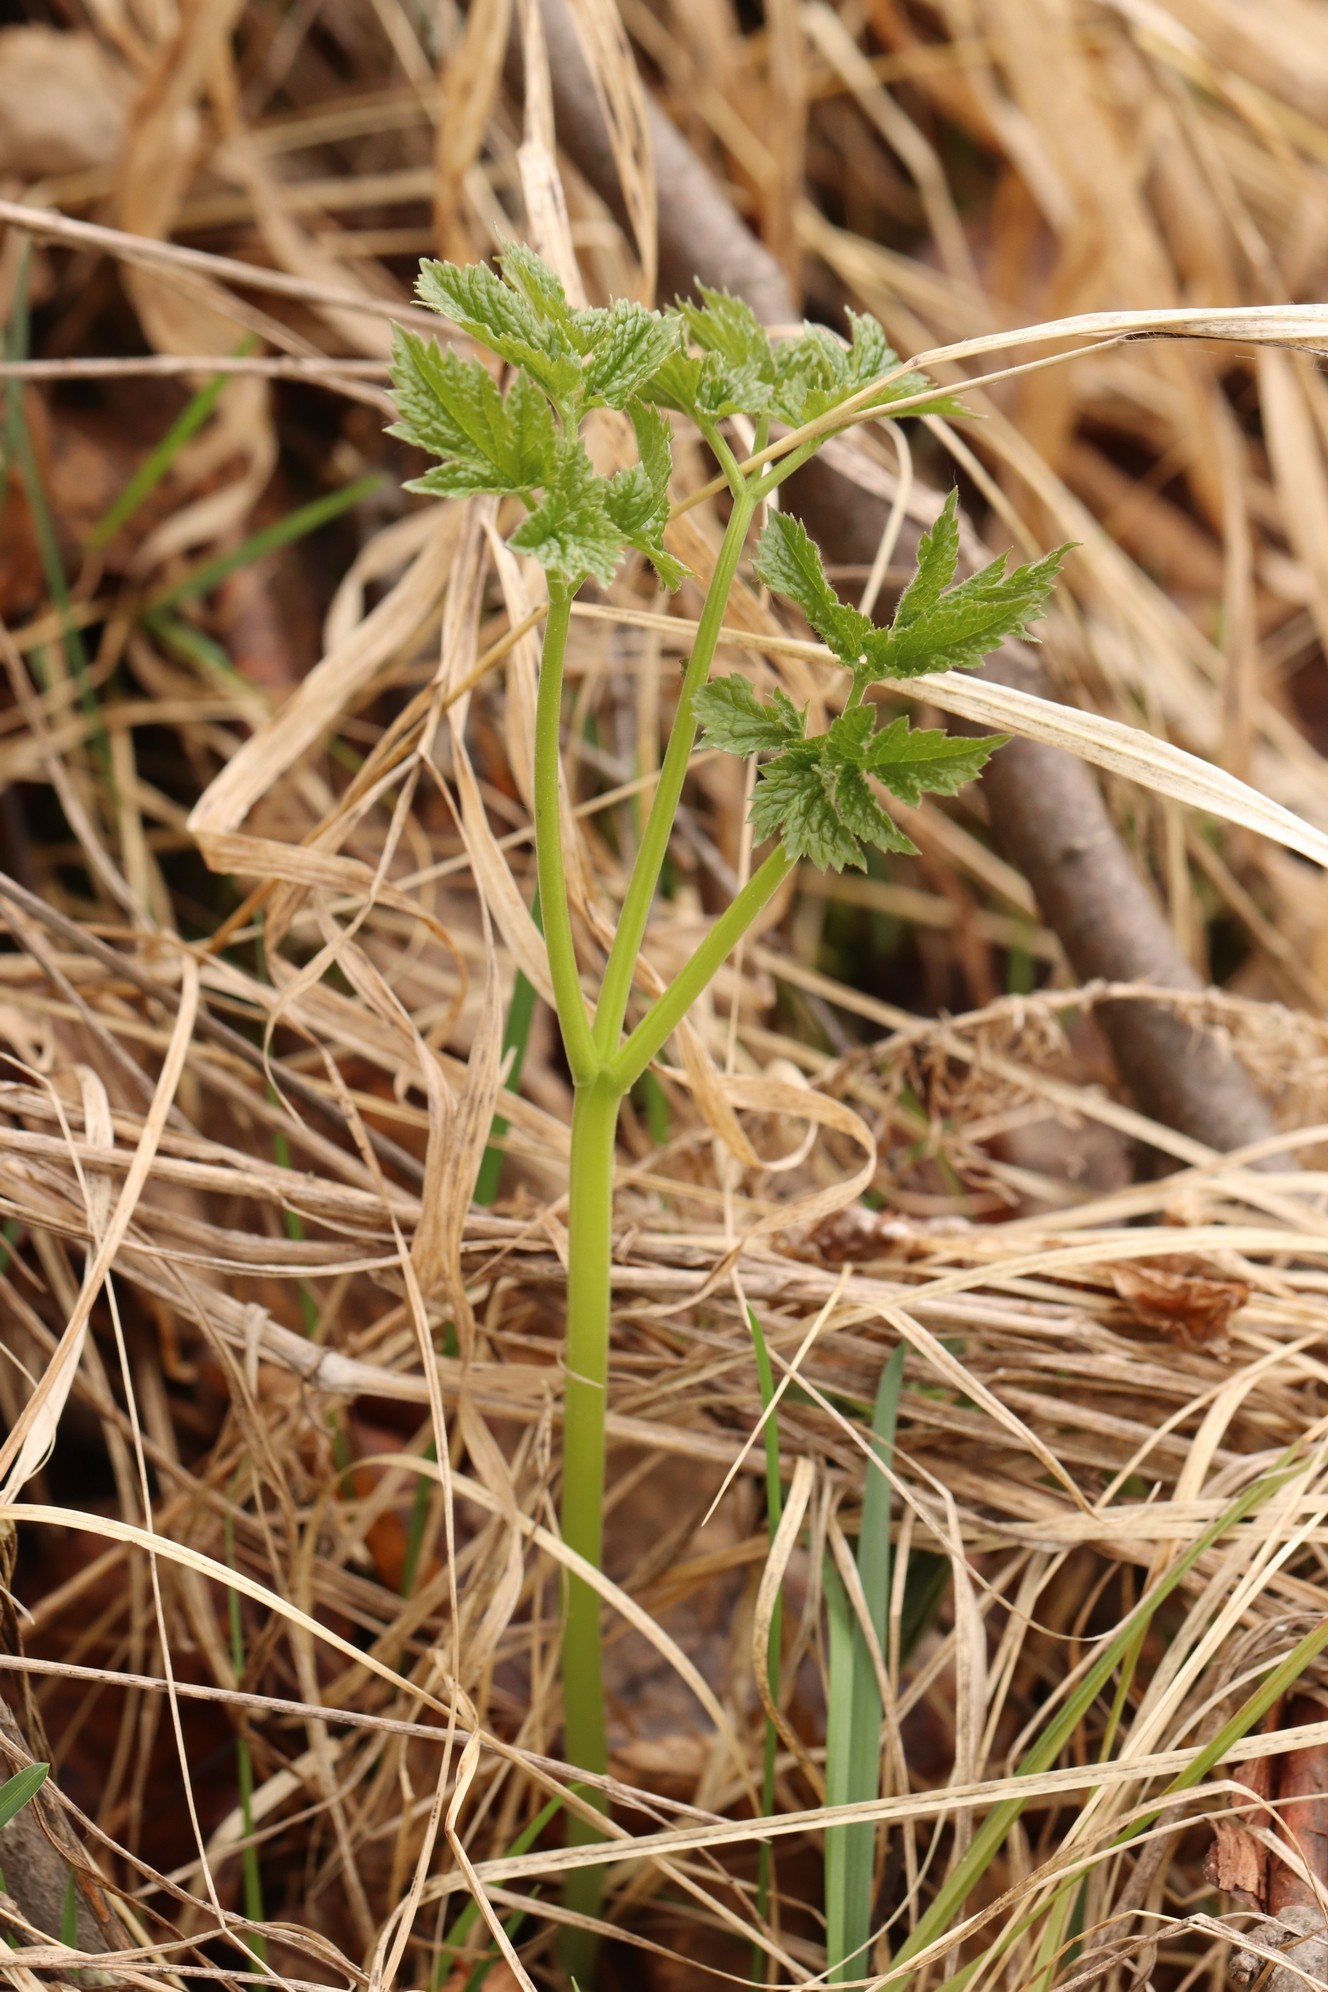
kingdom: Plantae
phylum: Tracheophyta
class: Magnoliopsida
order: Ranunculales
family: Ranunculaceae
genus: Actaea
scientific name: Actaea cimicifuga
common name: Chinese cimicifuga
